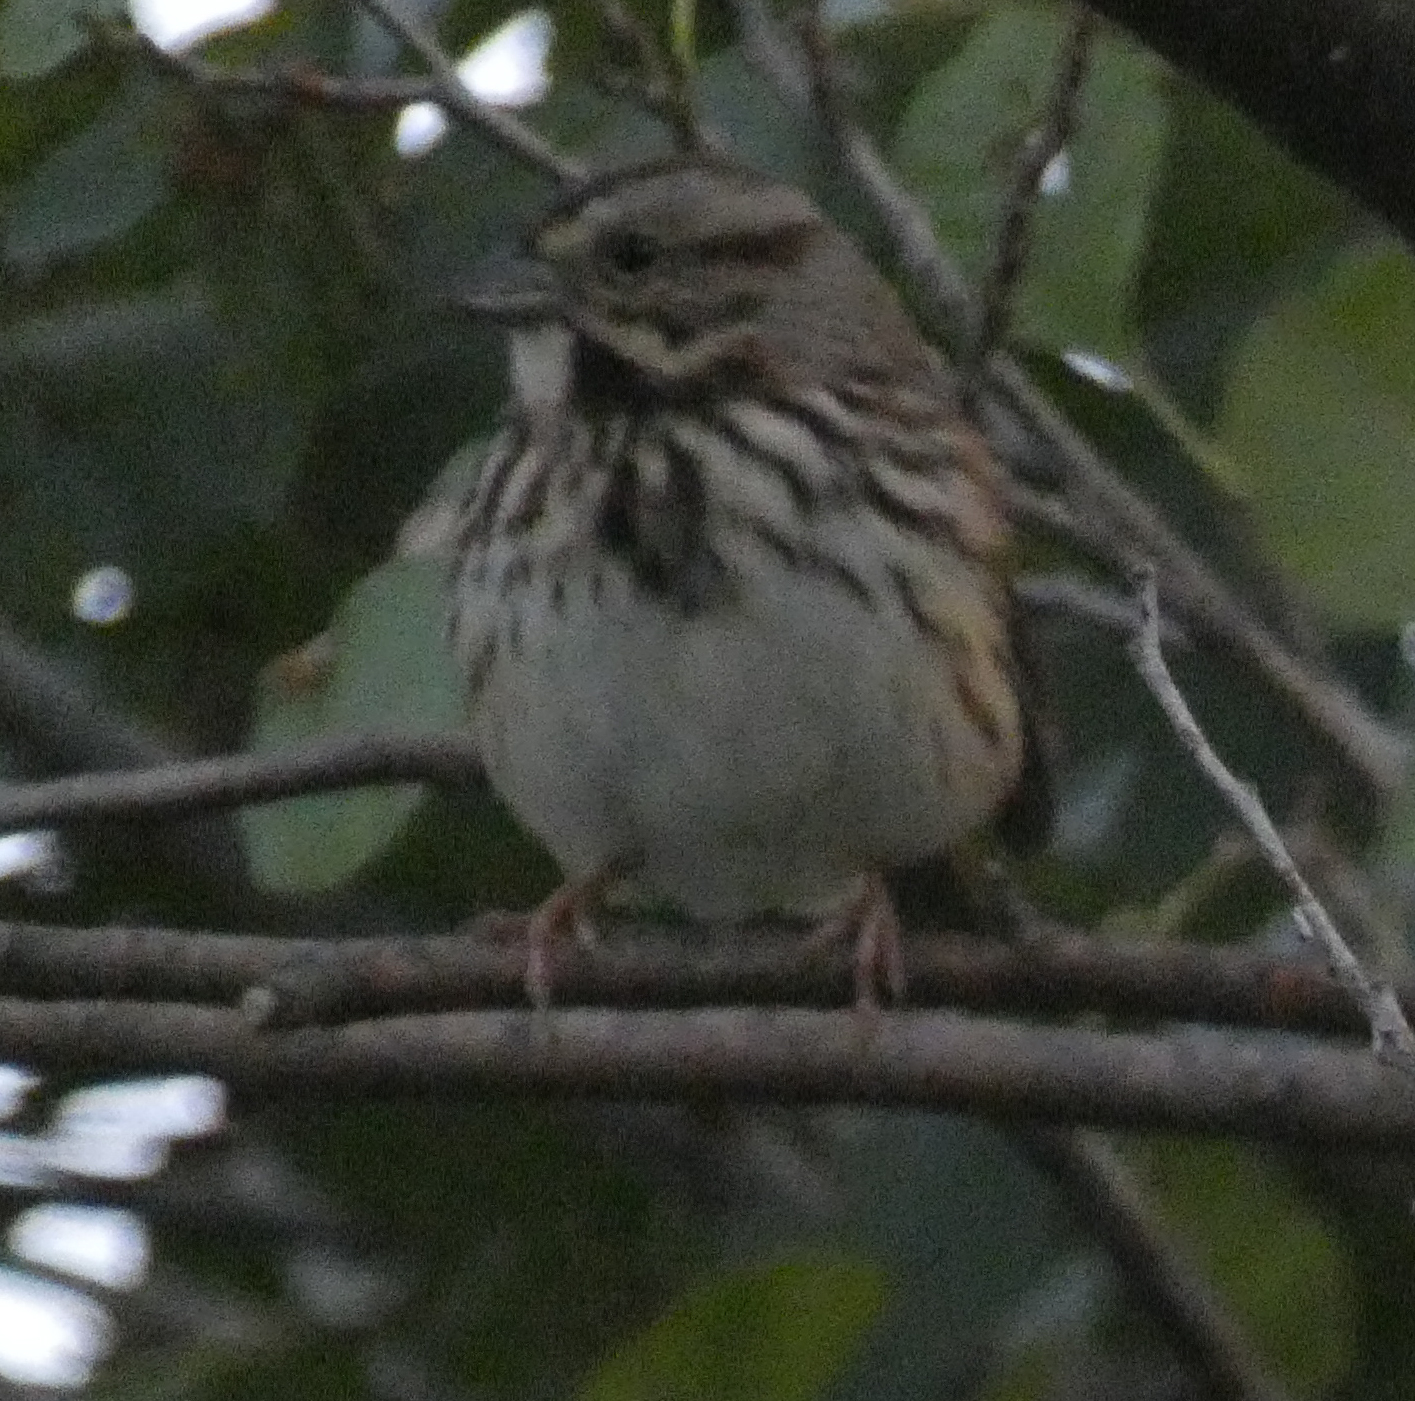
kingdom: Animalia
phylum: Chordata
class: Aves
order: Passeriformes
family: Passerellidae
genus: Melospiza
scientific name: Melospiza melodia
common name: Song sparrow
